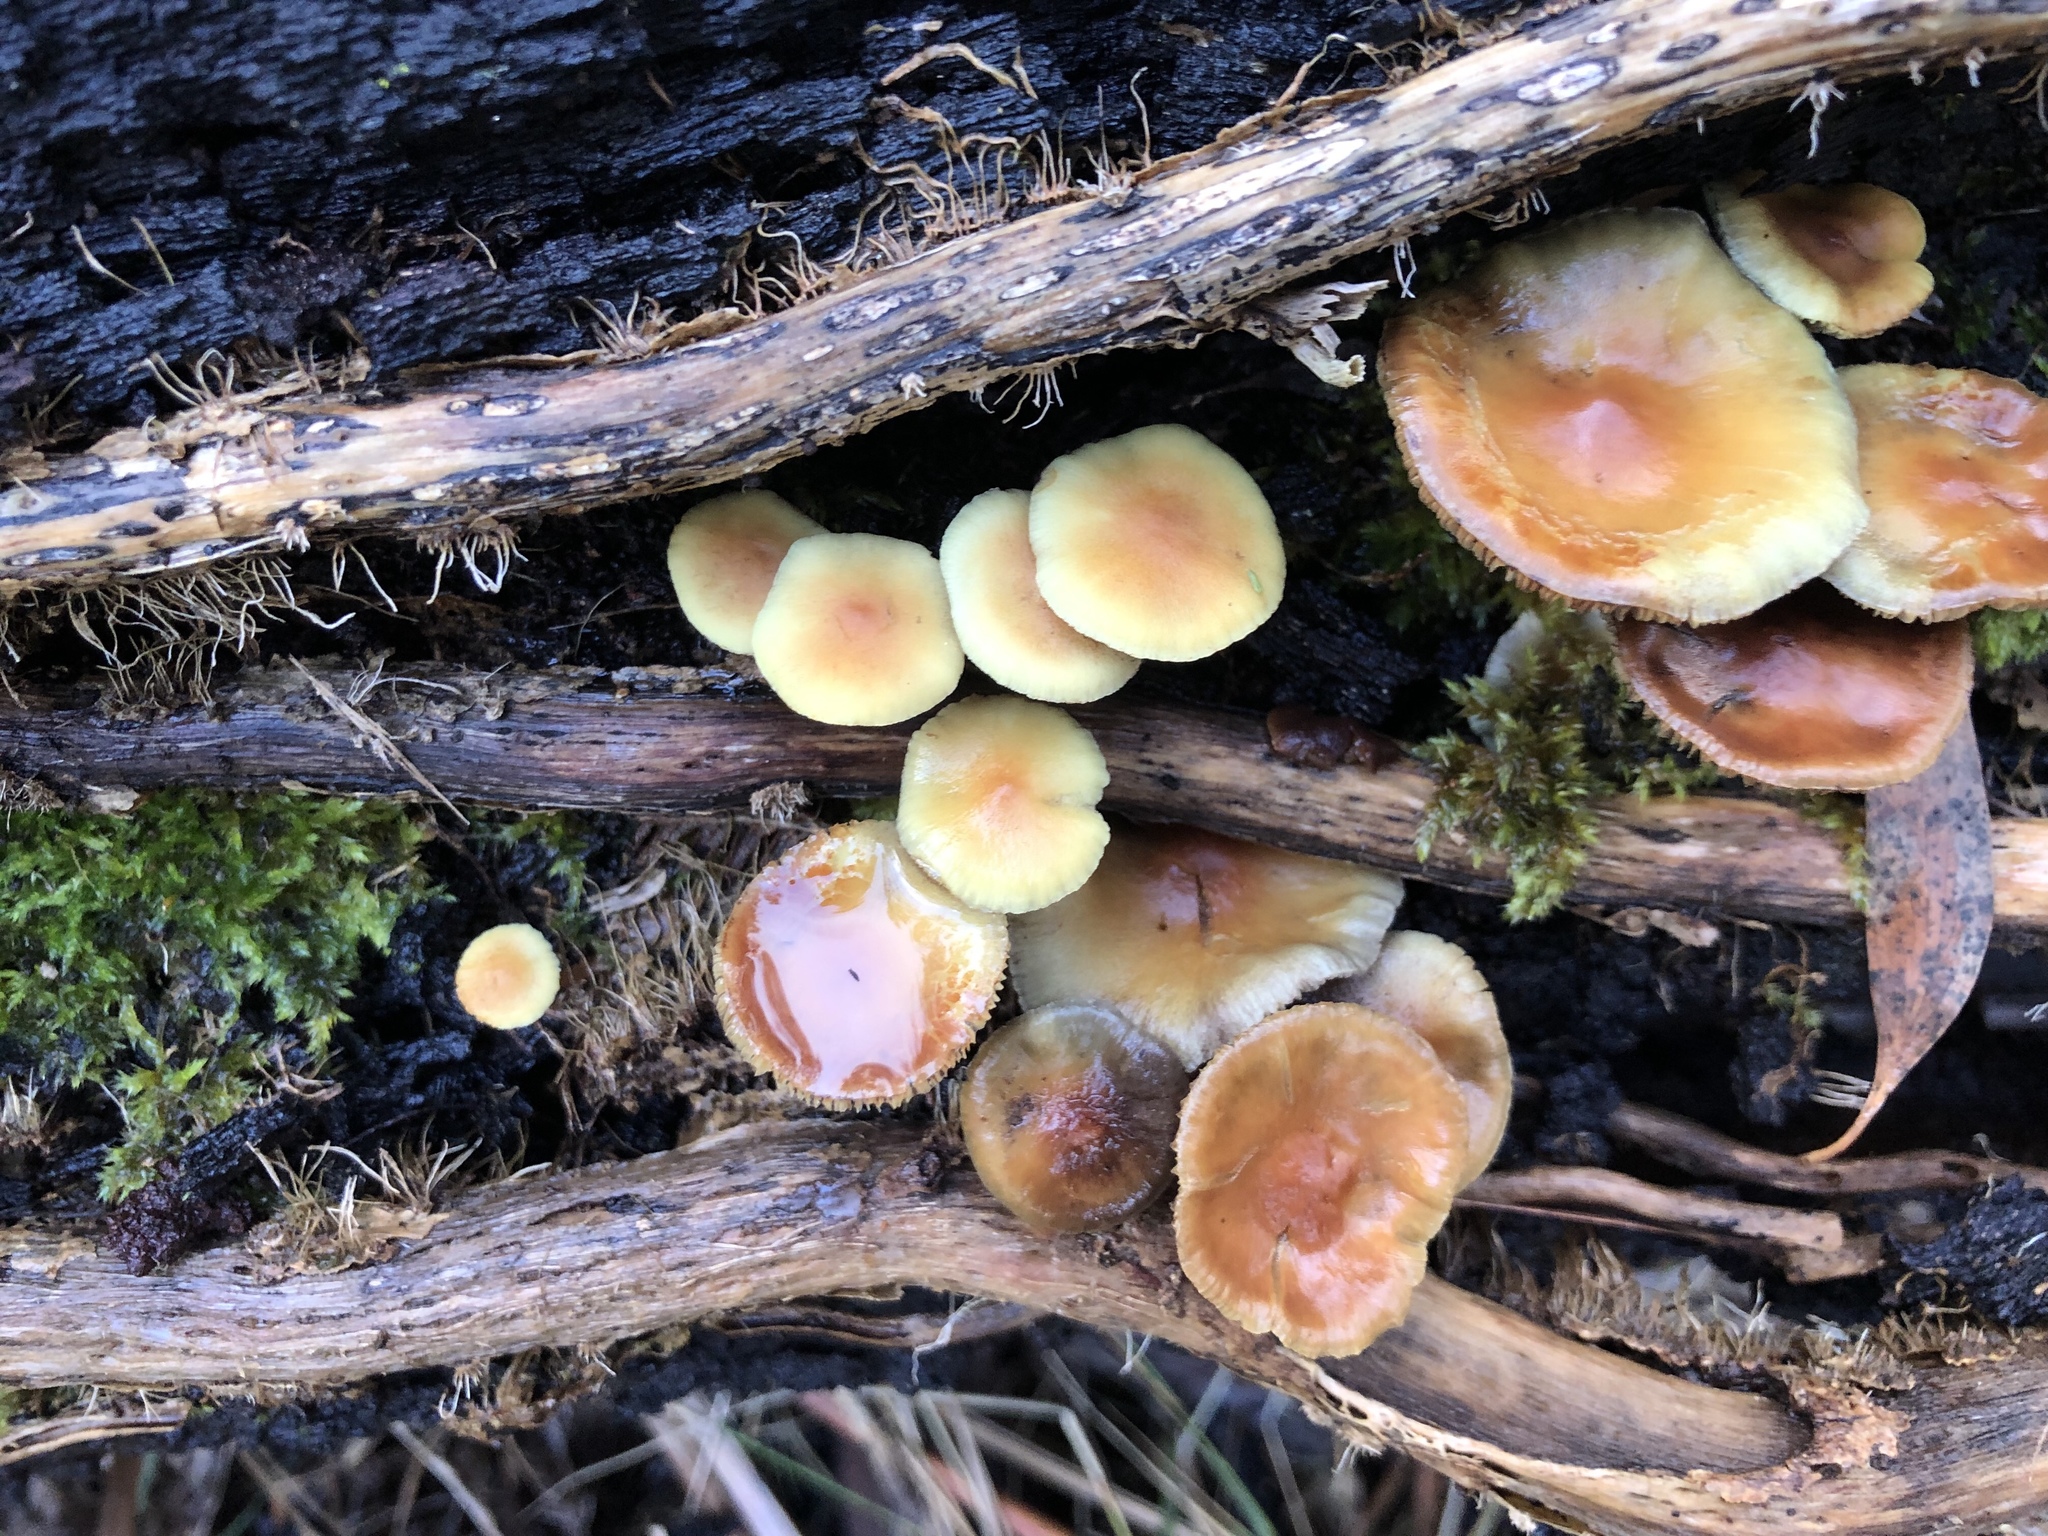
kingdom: Fungi
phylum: Basidiomycota
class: Agaricomycetes
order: Agaricales
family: Strophariaceae
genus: Hypholoma
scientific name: Hypholoma fasciculare
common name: Sulphur tuft
